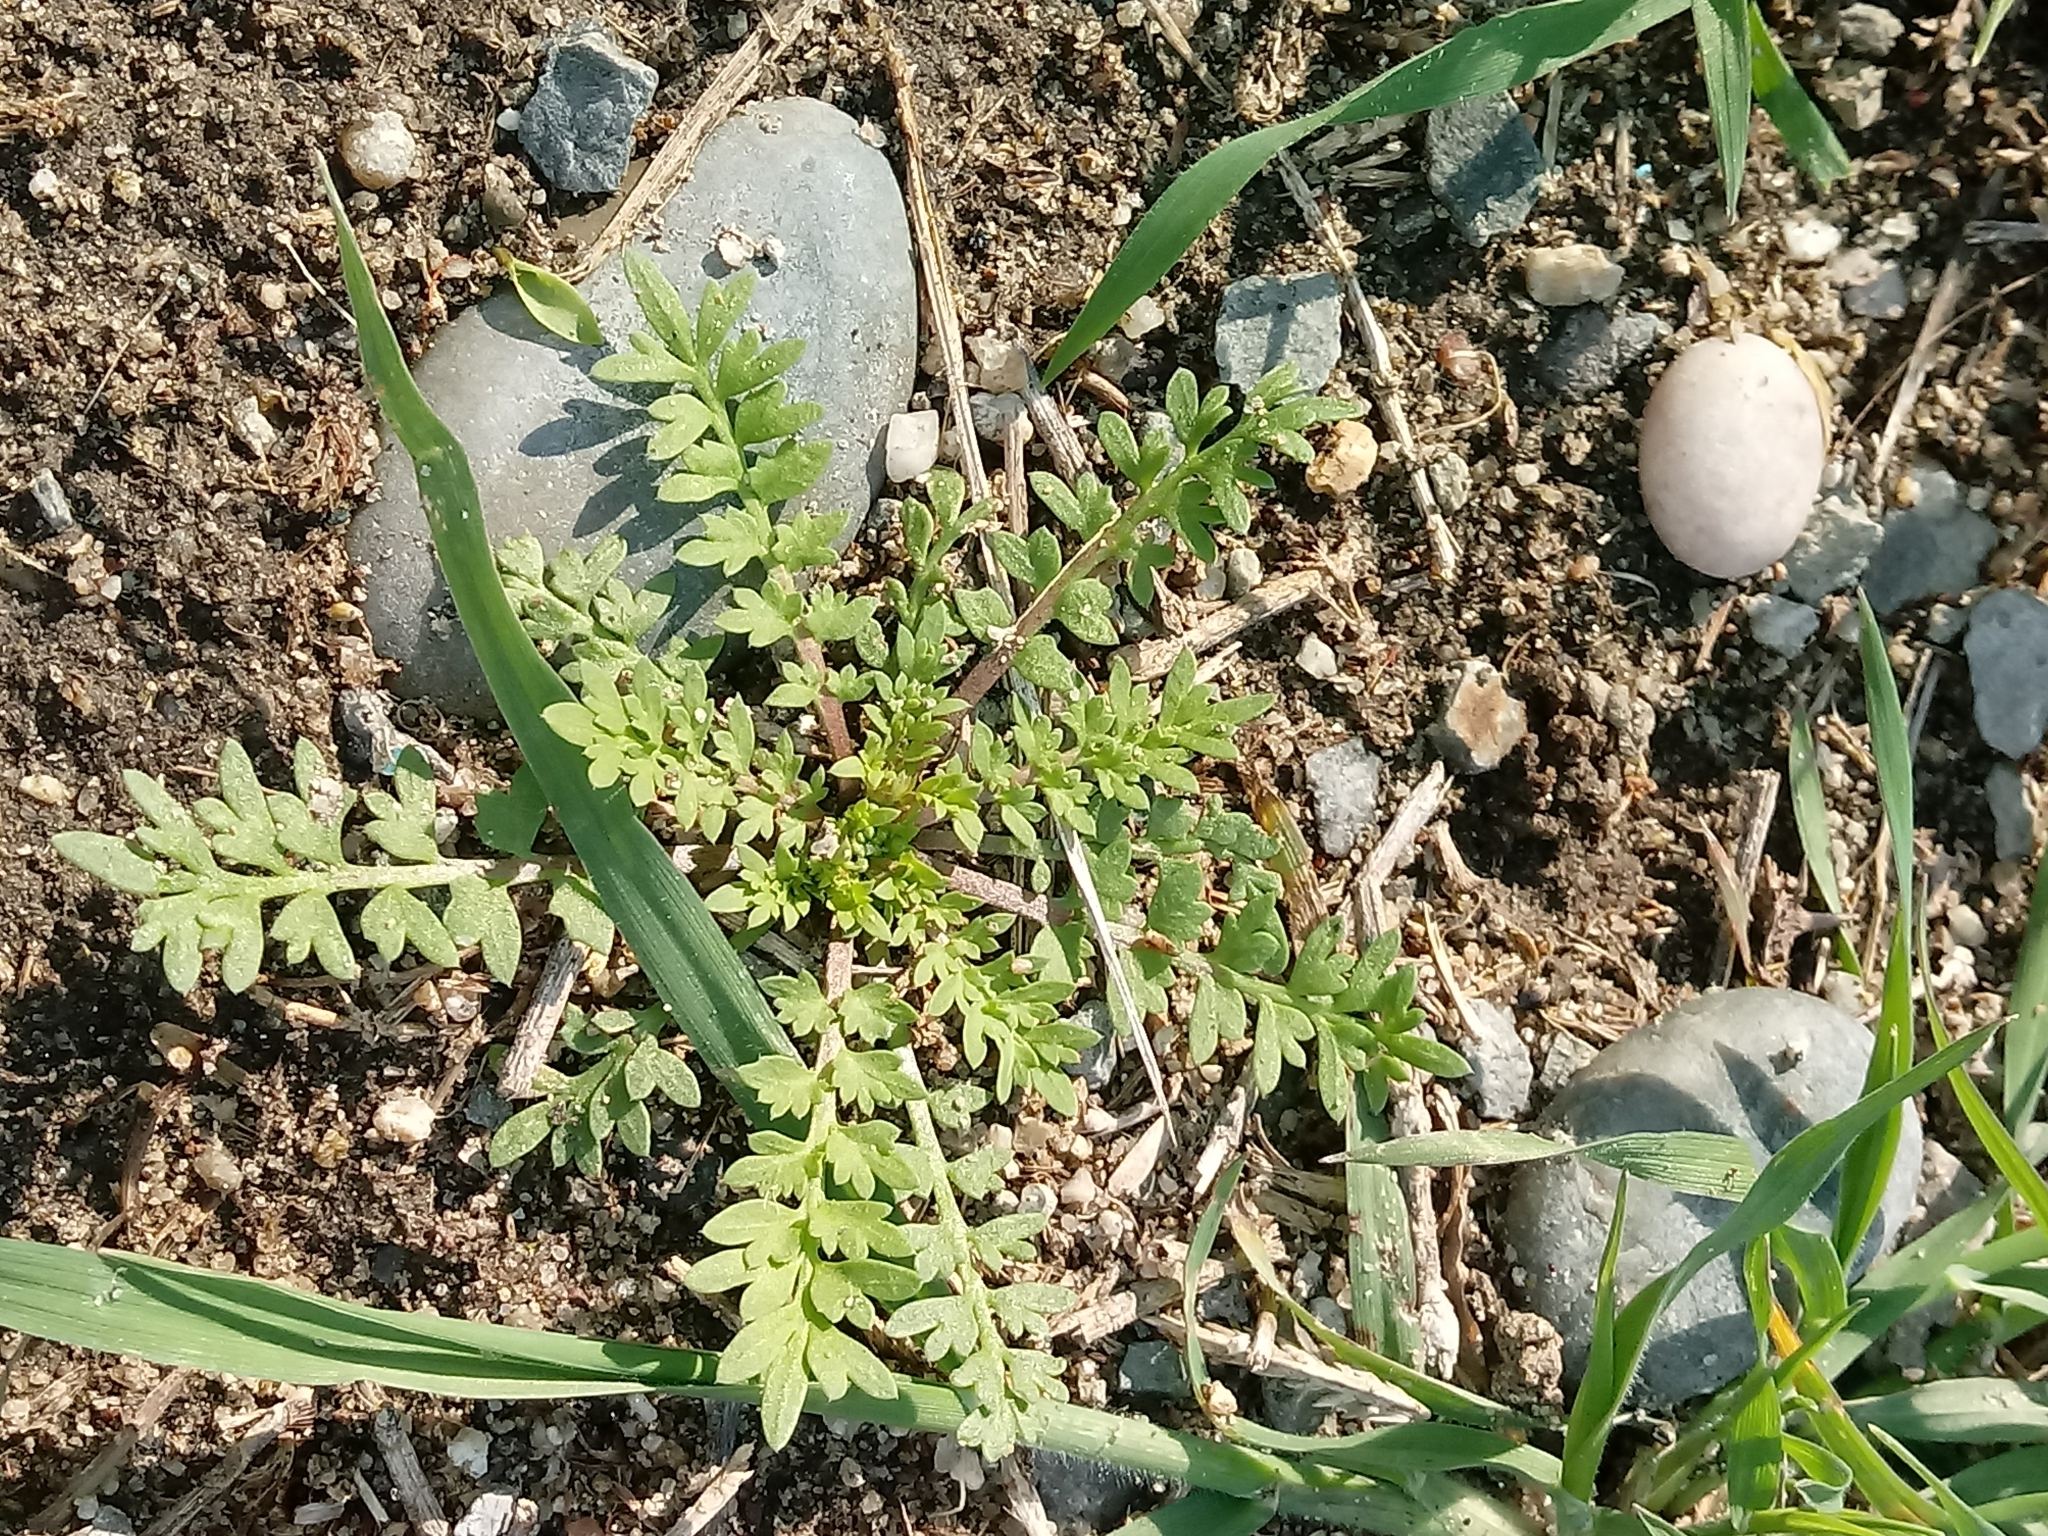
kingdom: Plantae
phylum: Tracheophyta
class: Magnoliopsida
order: Brassicales
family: Brassicaceae
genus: Lepidium
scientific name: Lepidium didymum
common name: Lesser swinecress
